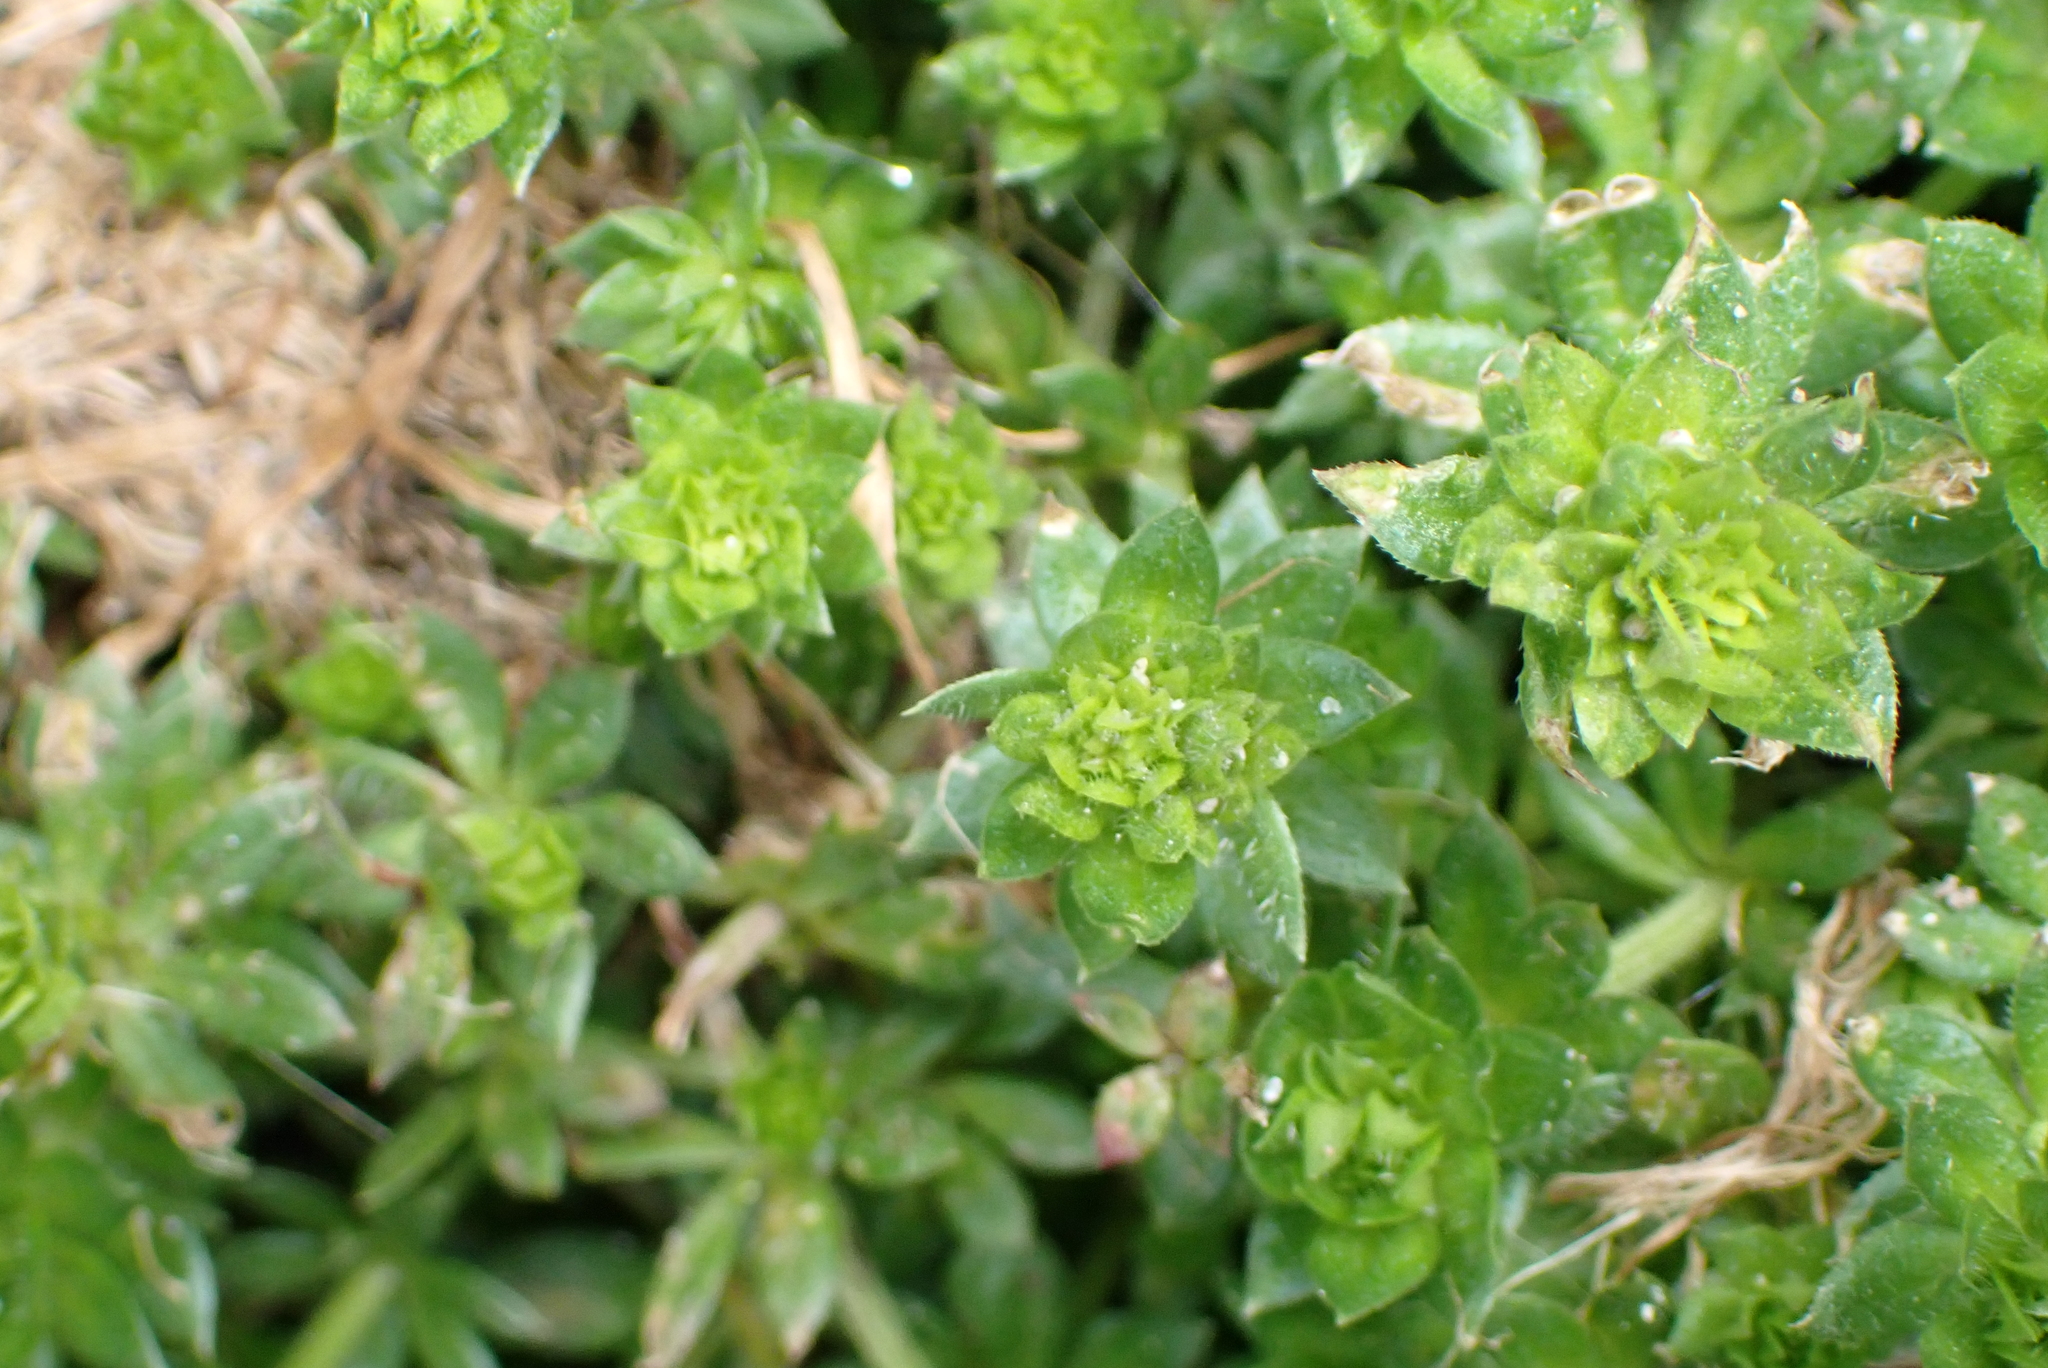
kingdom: Plantae
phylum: Tracheophyta
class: Magnoliopsida
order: Gentianales
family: Rubiaceae
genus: Sherardia
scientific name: Sherardia arvensis
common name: Field madder
